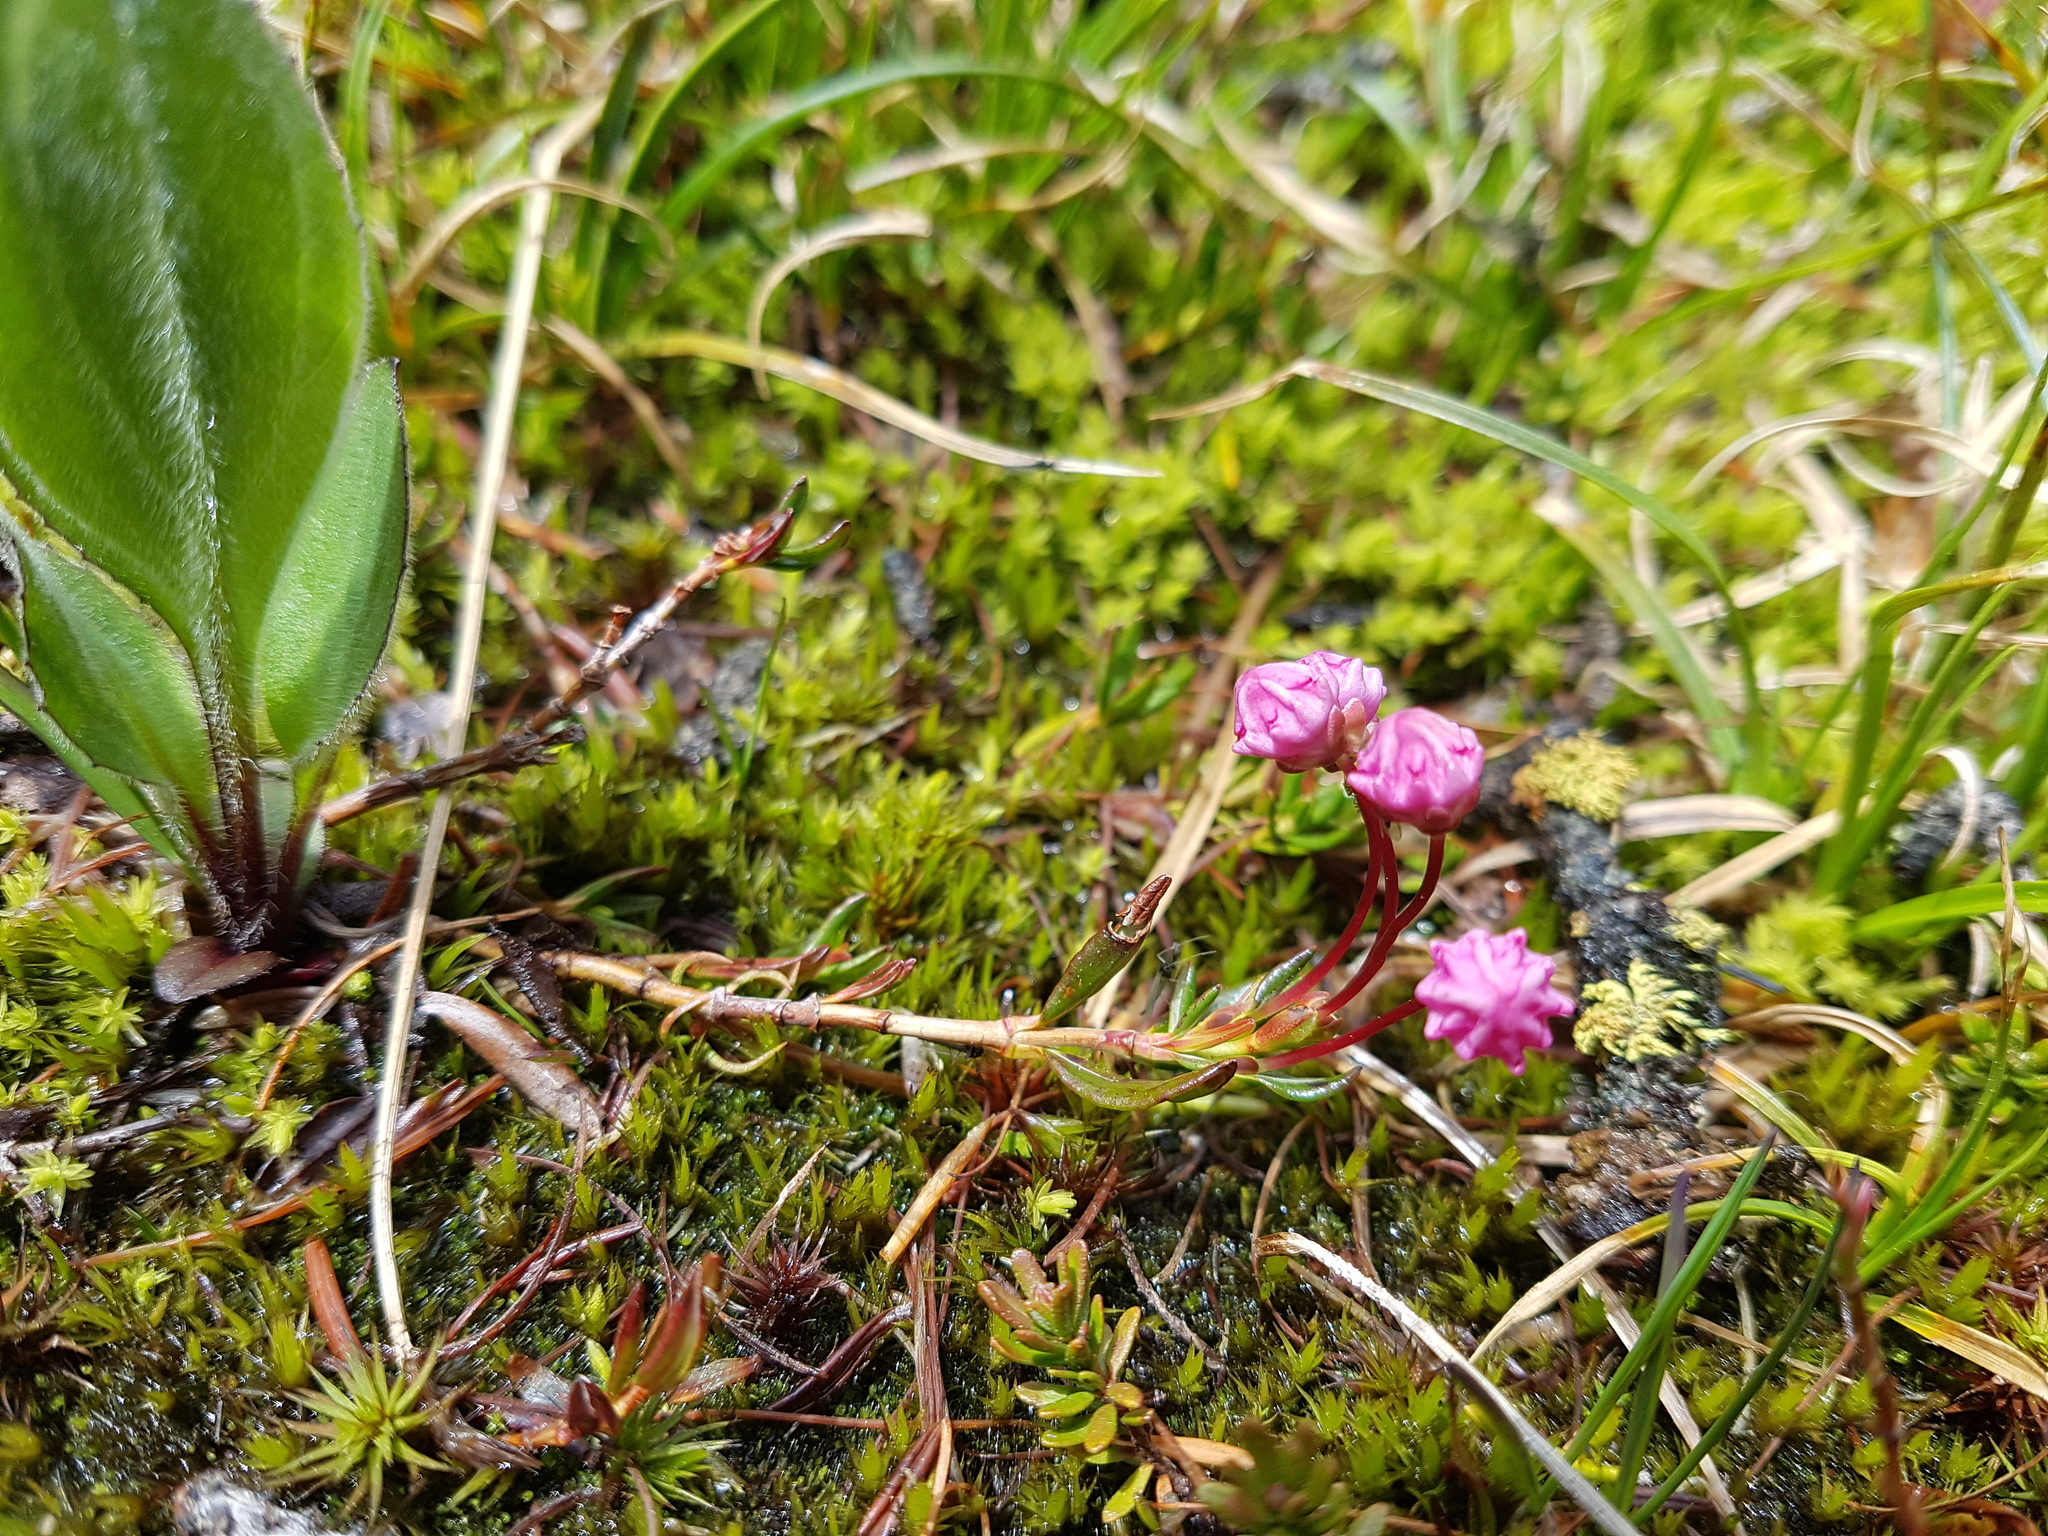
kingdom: Plantae
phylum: Tracheophyta
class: Magnoliopsida
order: Ericales
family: Ericaceae
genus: Kalmia
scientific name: Kalmia microphylla
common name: Alpine bog laurel
